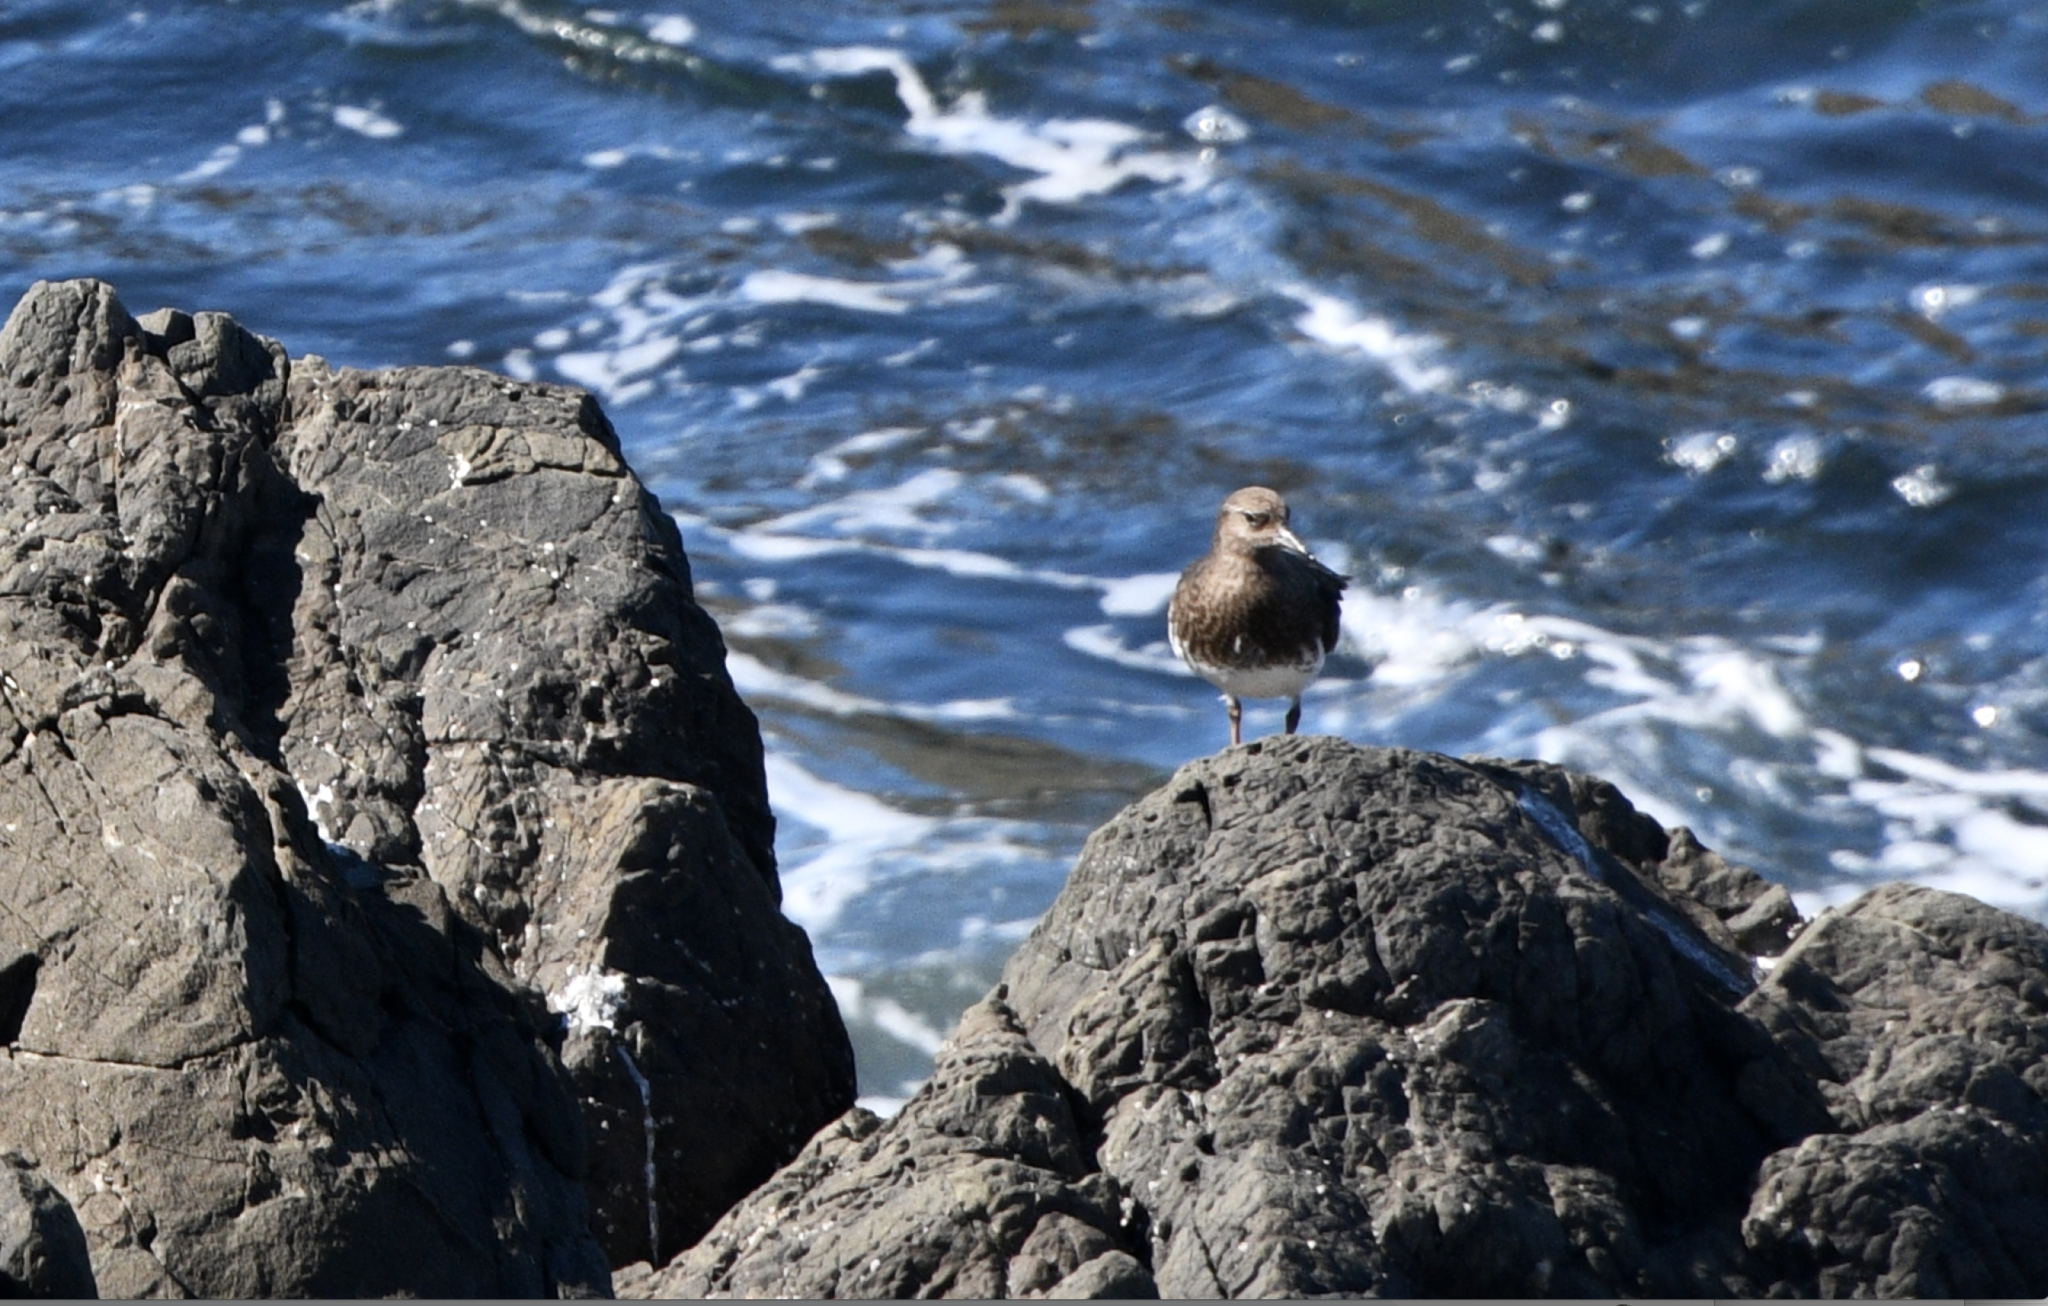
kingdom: Animalia
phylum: Chordata
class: Aves
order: Charadriiformes
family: Scolopacidae
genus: Arenaria
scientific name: Arenaria melanocephala
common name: Black turnstone
